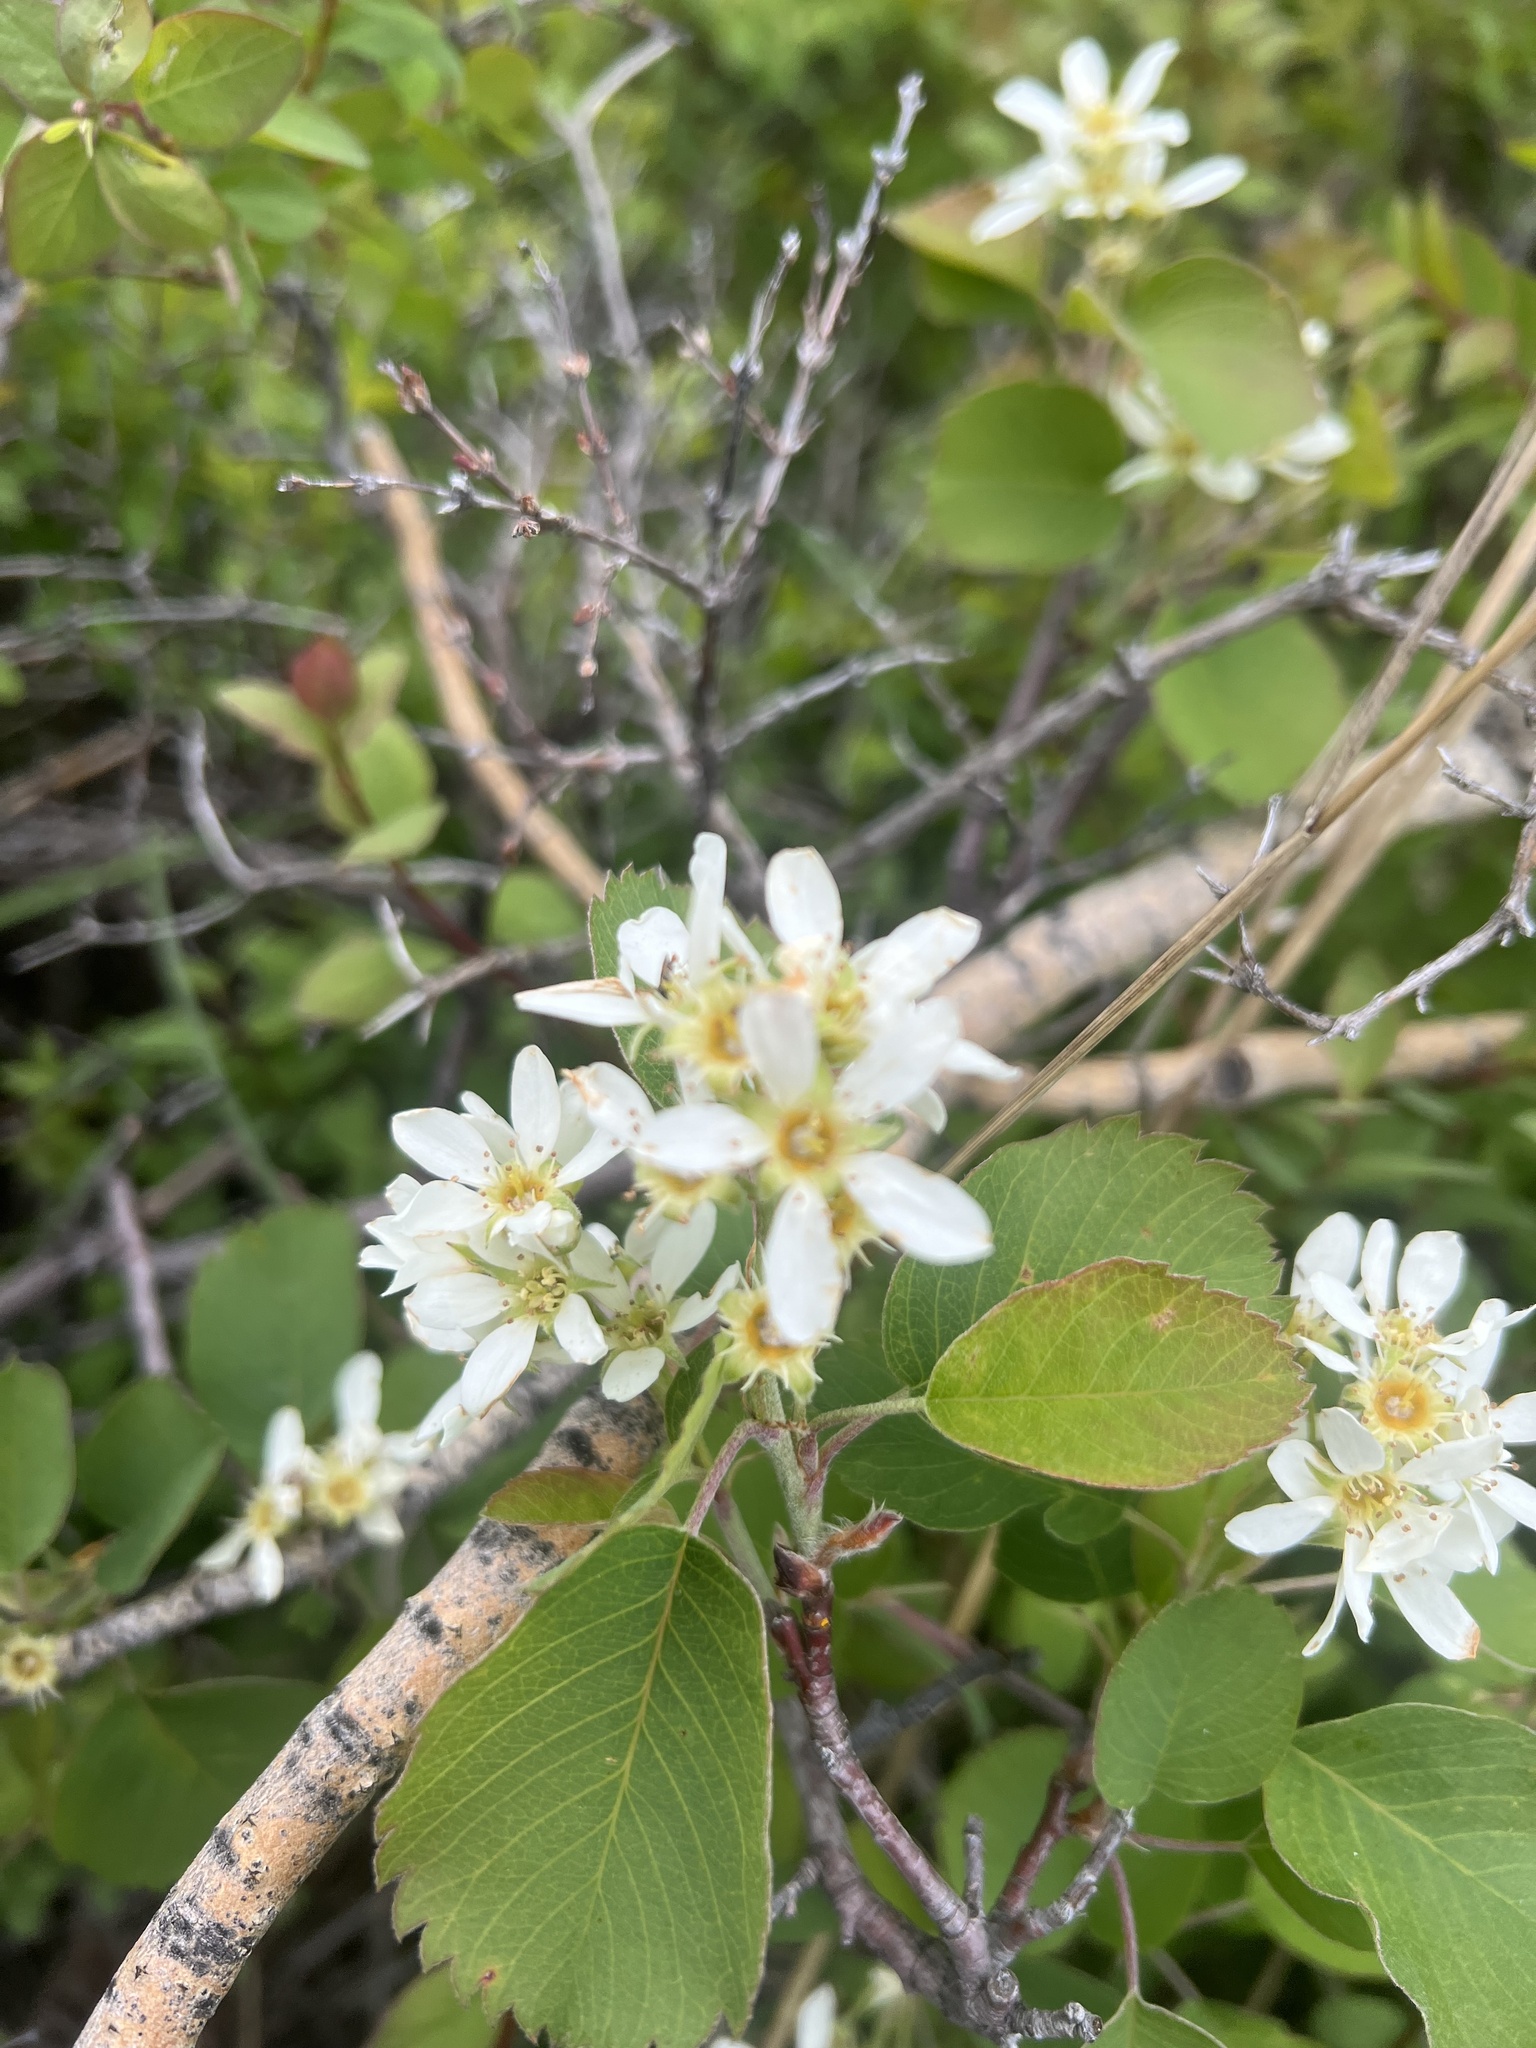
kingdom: Plantae
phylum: Tracheophyta
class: Magnoliopsida
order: Rosales
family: Rosaceae
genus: Amelanchier
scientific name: Amelanchier utahensis
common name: Utah serviceberry
